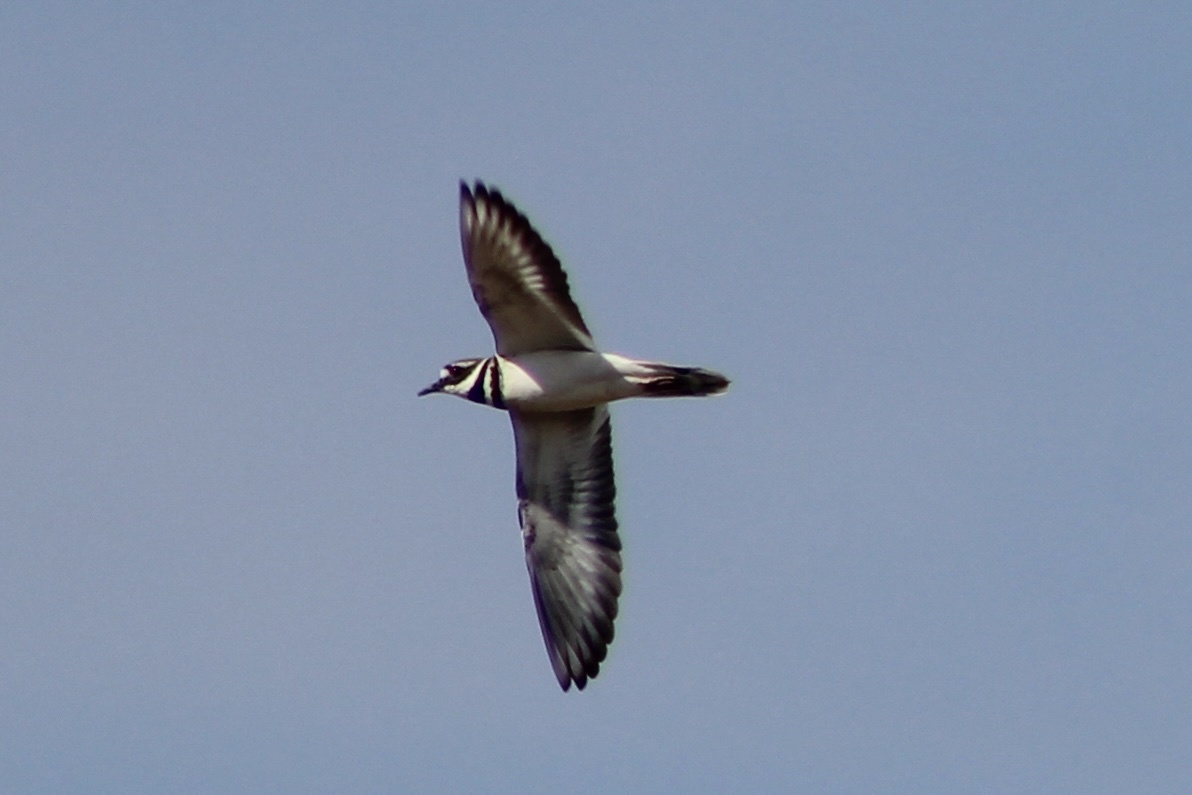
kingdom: Animalia
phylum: Chordata
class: Aves
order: Charadriiformes
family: Charadriidae
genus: Charadrius
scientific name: Charadrius vociferus
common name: Killdeer
